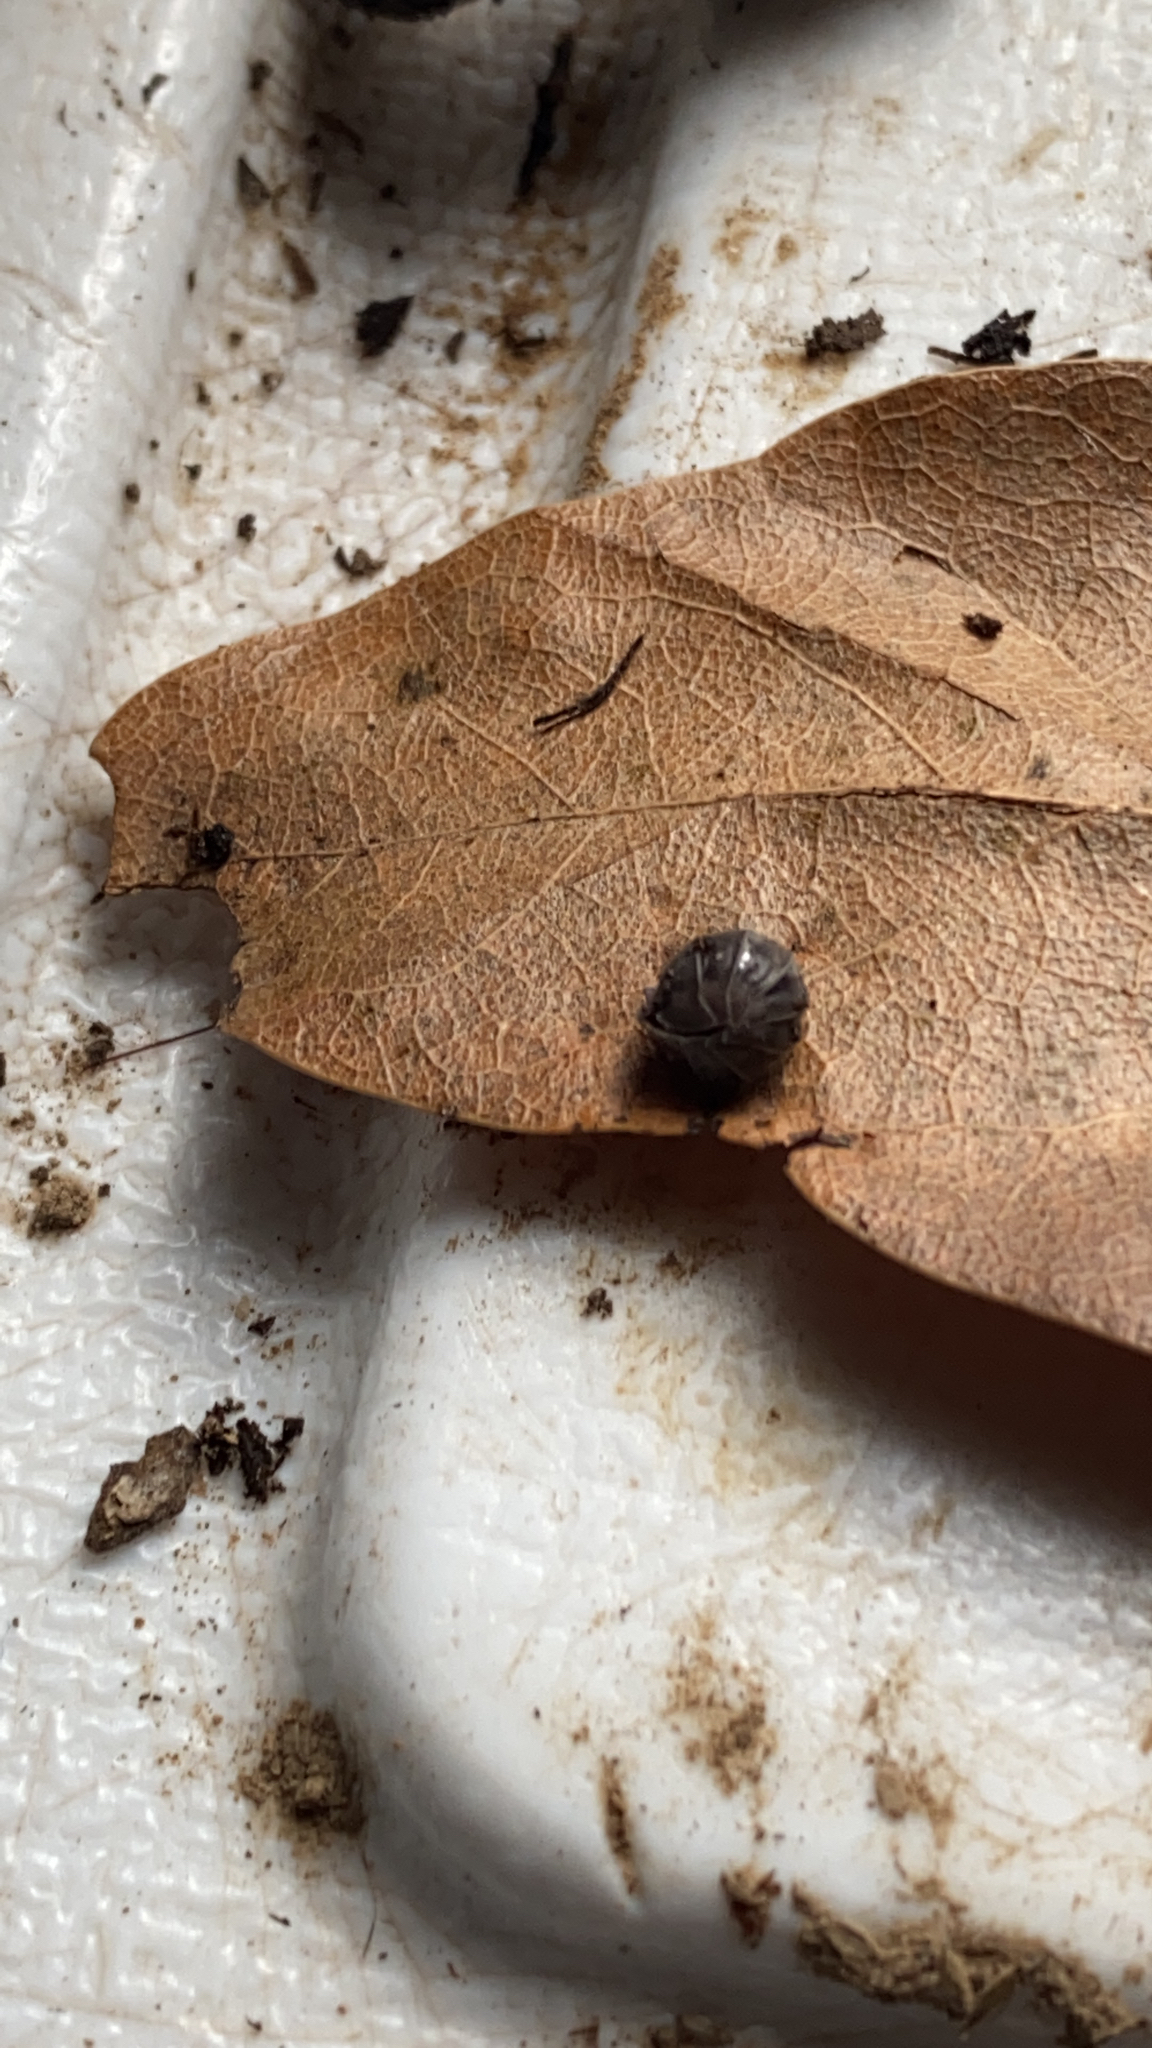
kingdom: Animalia
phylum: Arthropoda
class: Malacostraca
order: Isopoda
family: Armadillidiidae
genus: Armadillidium
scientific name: Armadillidium nasatum
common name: Isopod
